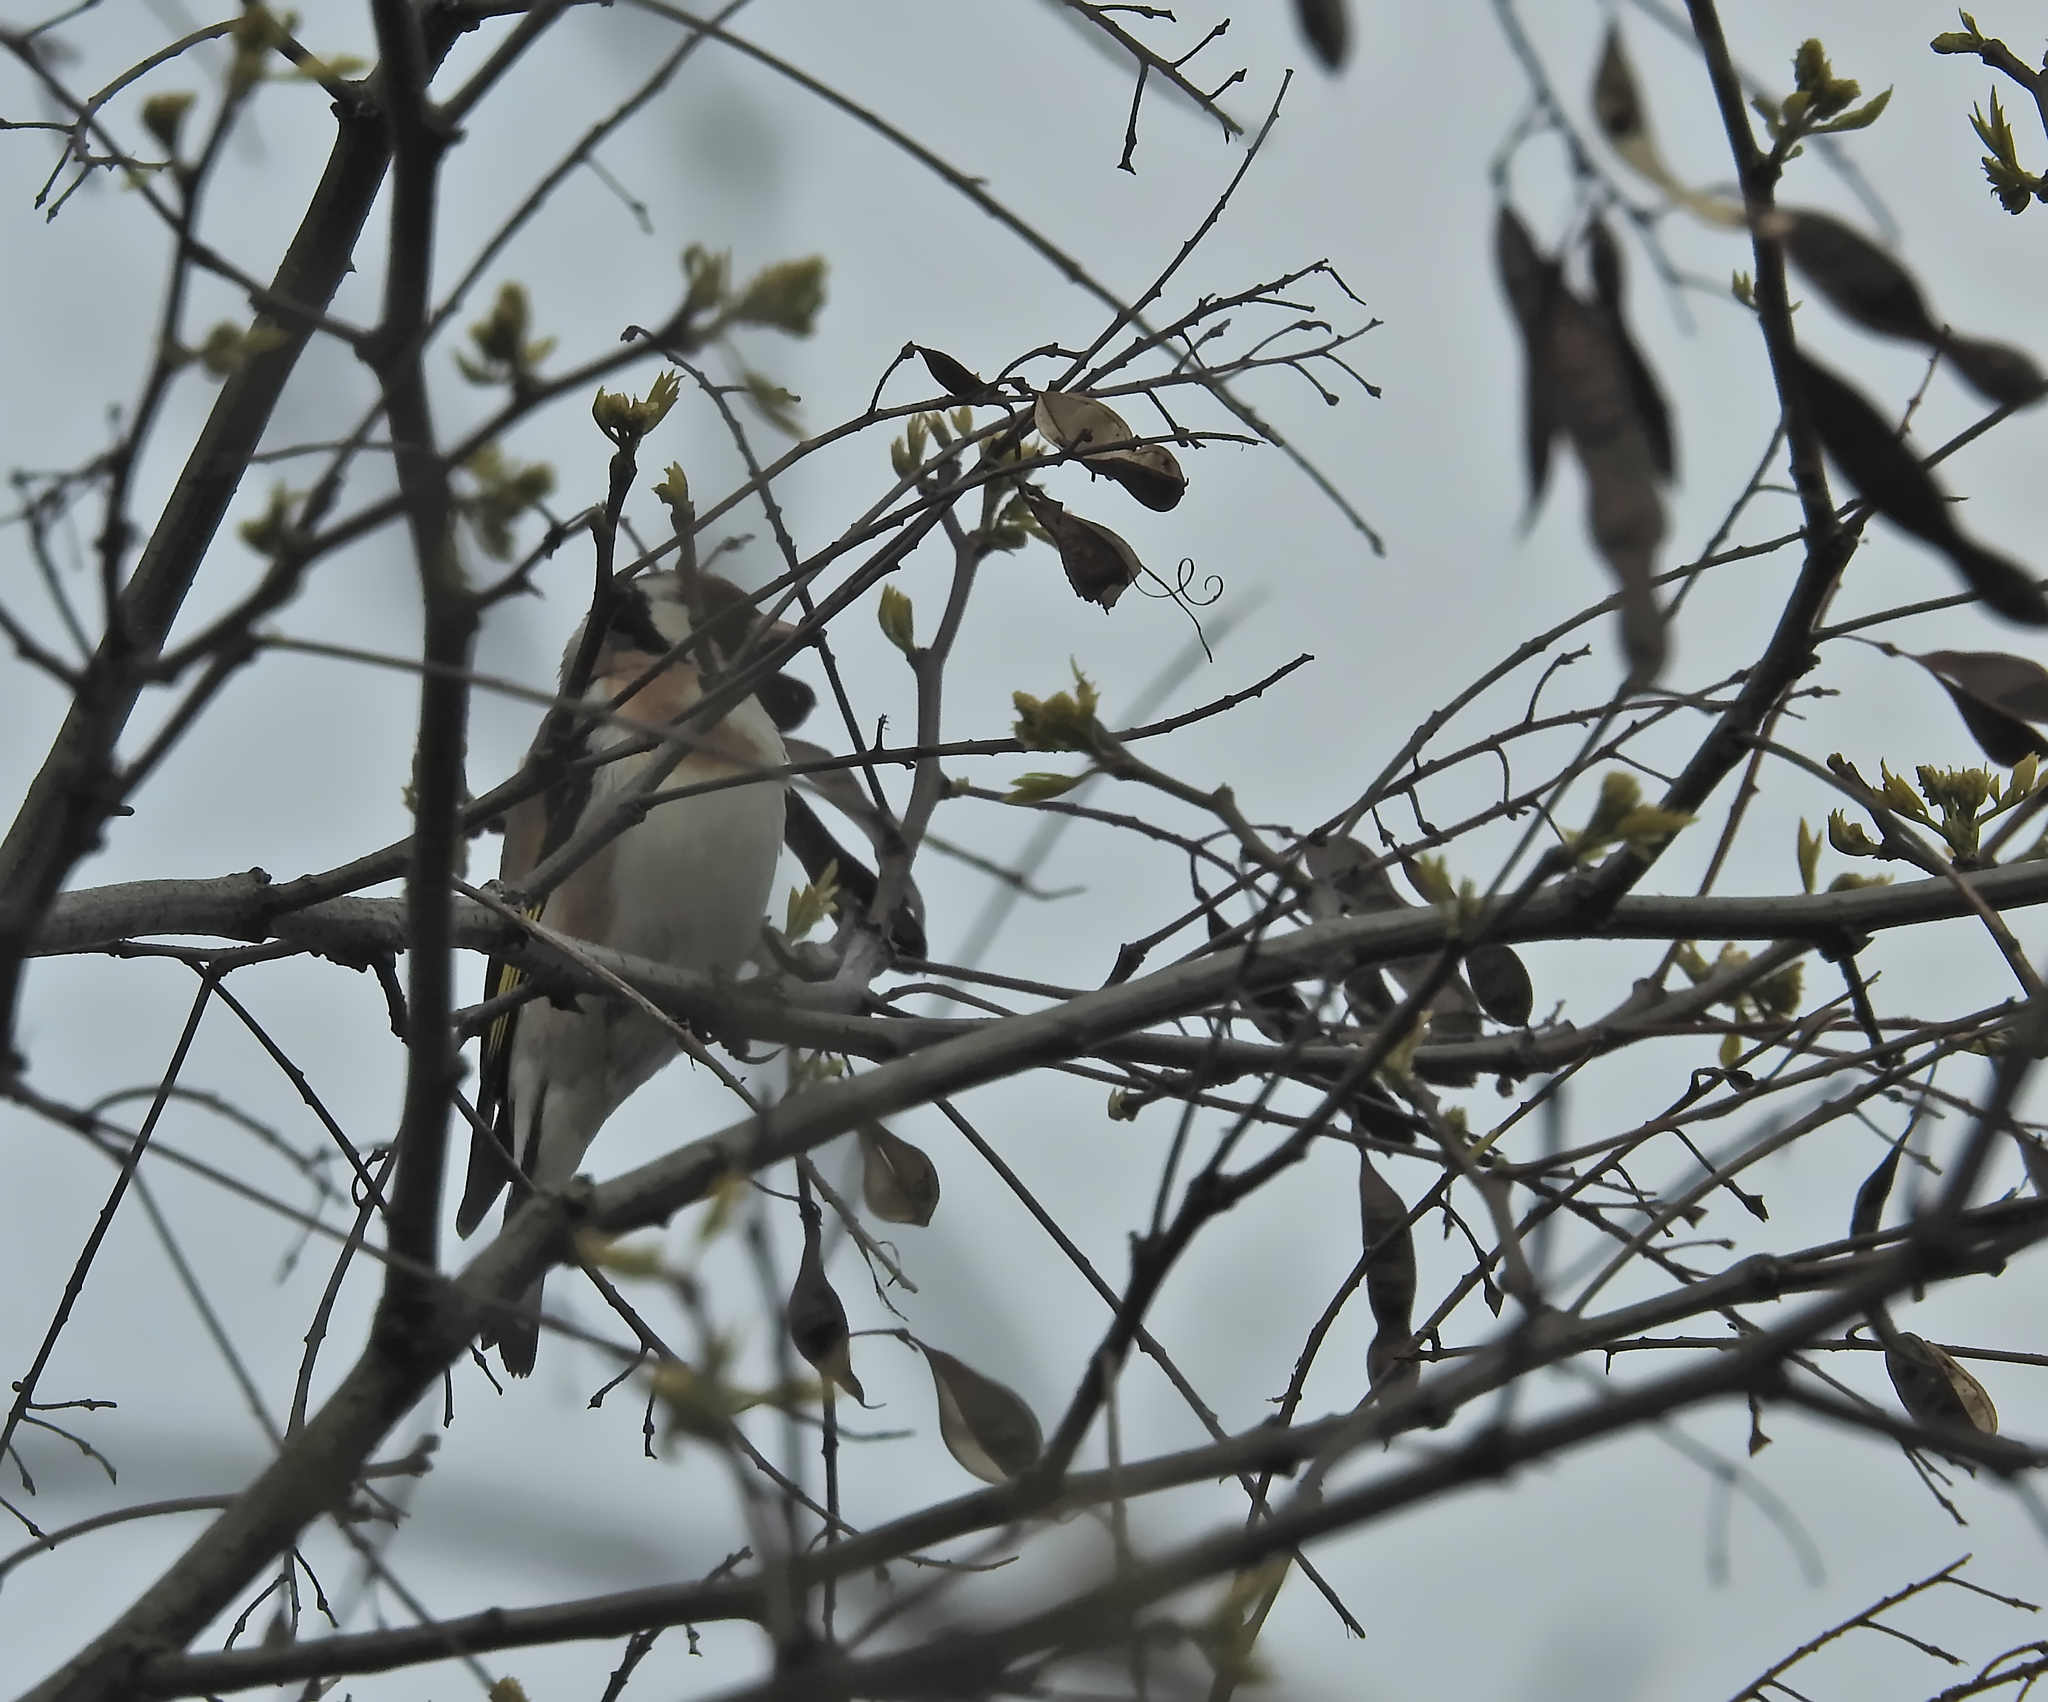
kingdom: Animalia
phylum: Chordata
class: Aves
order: Passeriformes
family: Fringillidae
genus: Carduelis
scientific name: Carduelis carduelis
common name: European goldfinch
